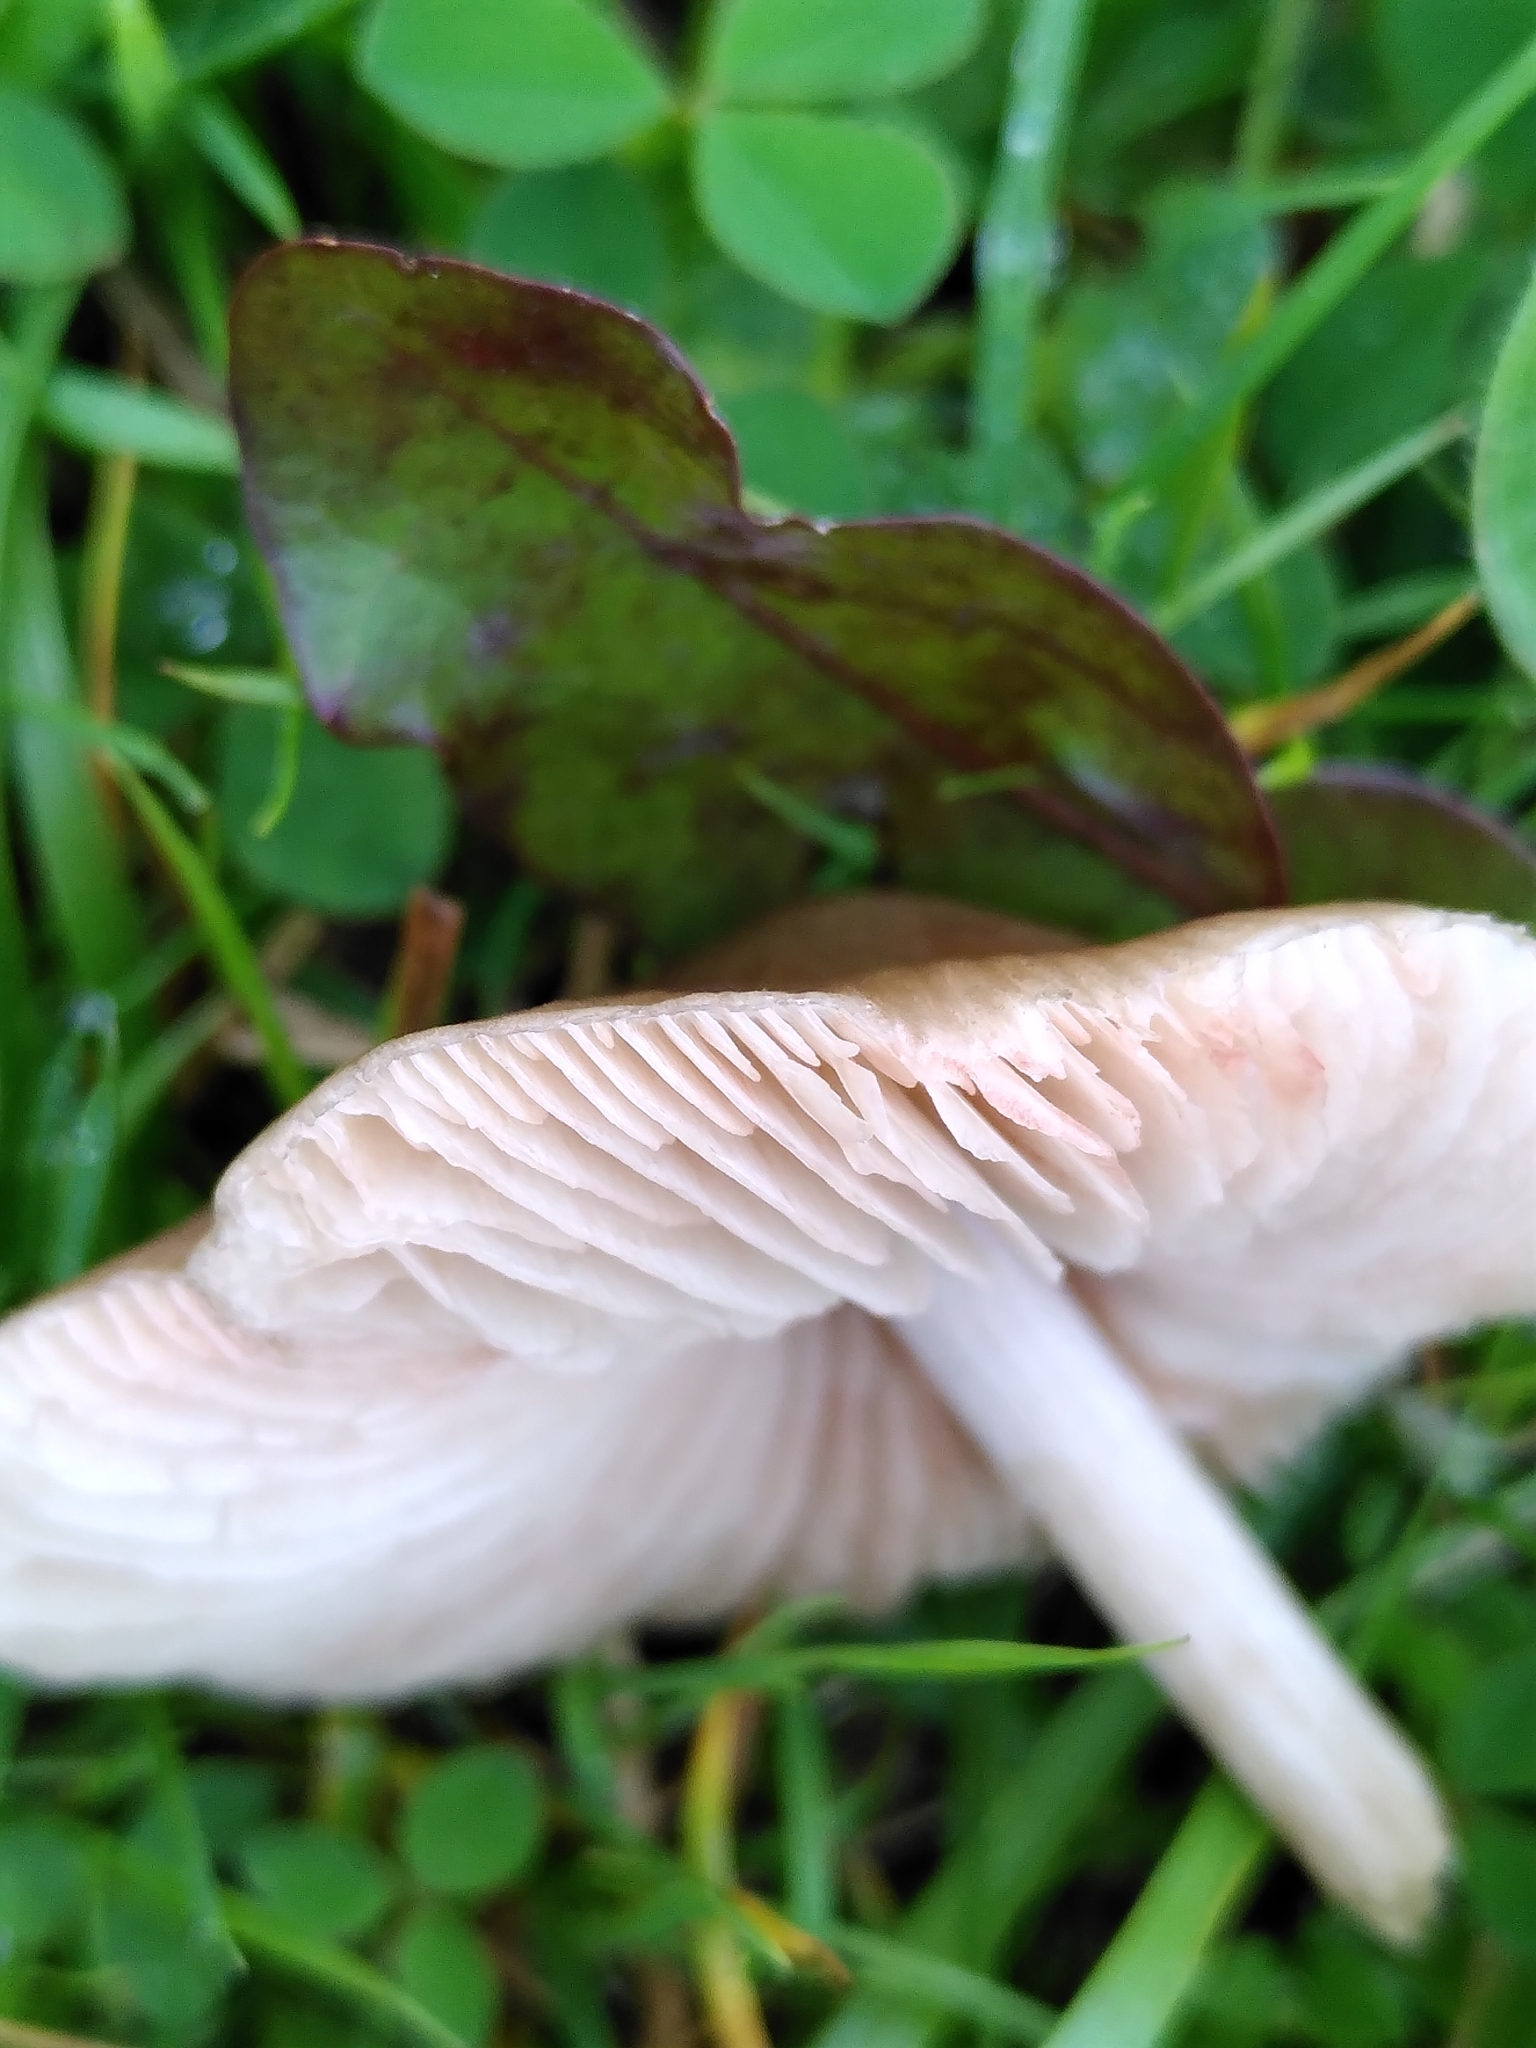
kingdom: Fungi
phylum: Basidiomycota
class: Agaricomycetes
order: Agaricales
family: Entolomataceae
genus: Entoloma
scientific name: Entoloma conferendum
